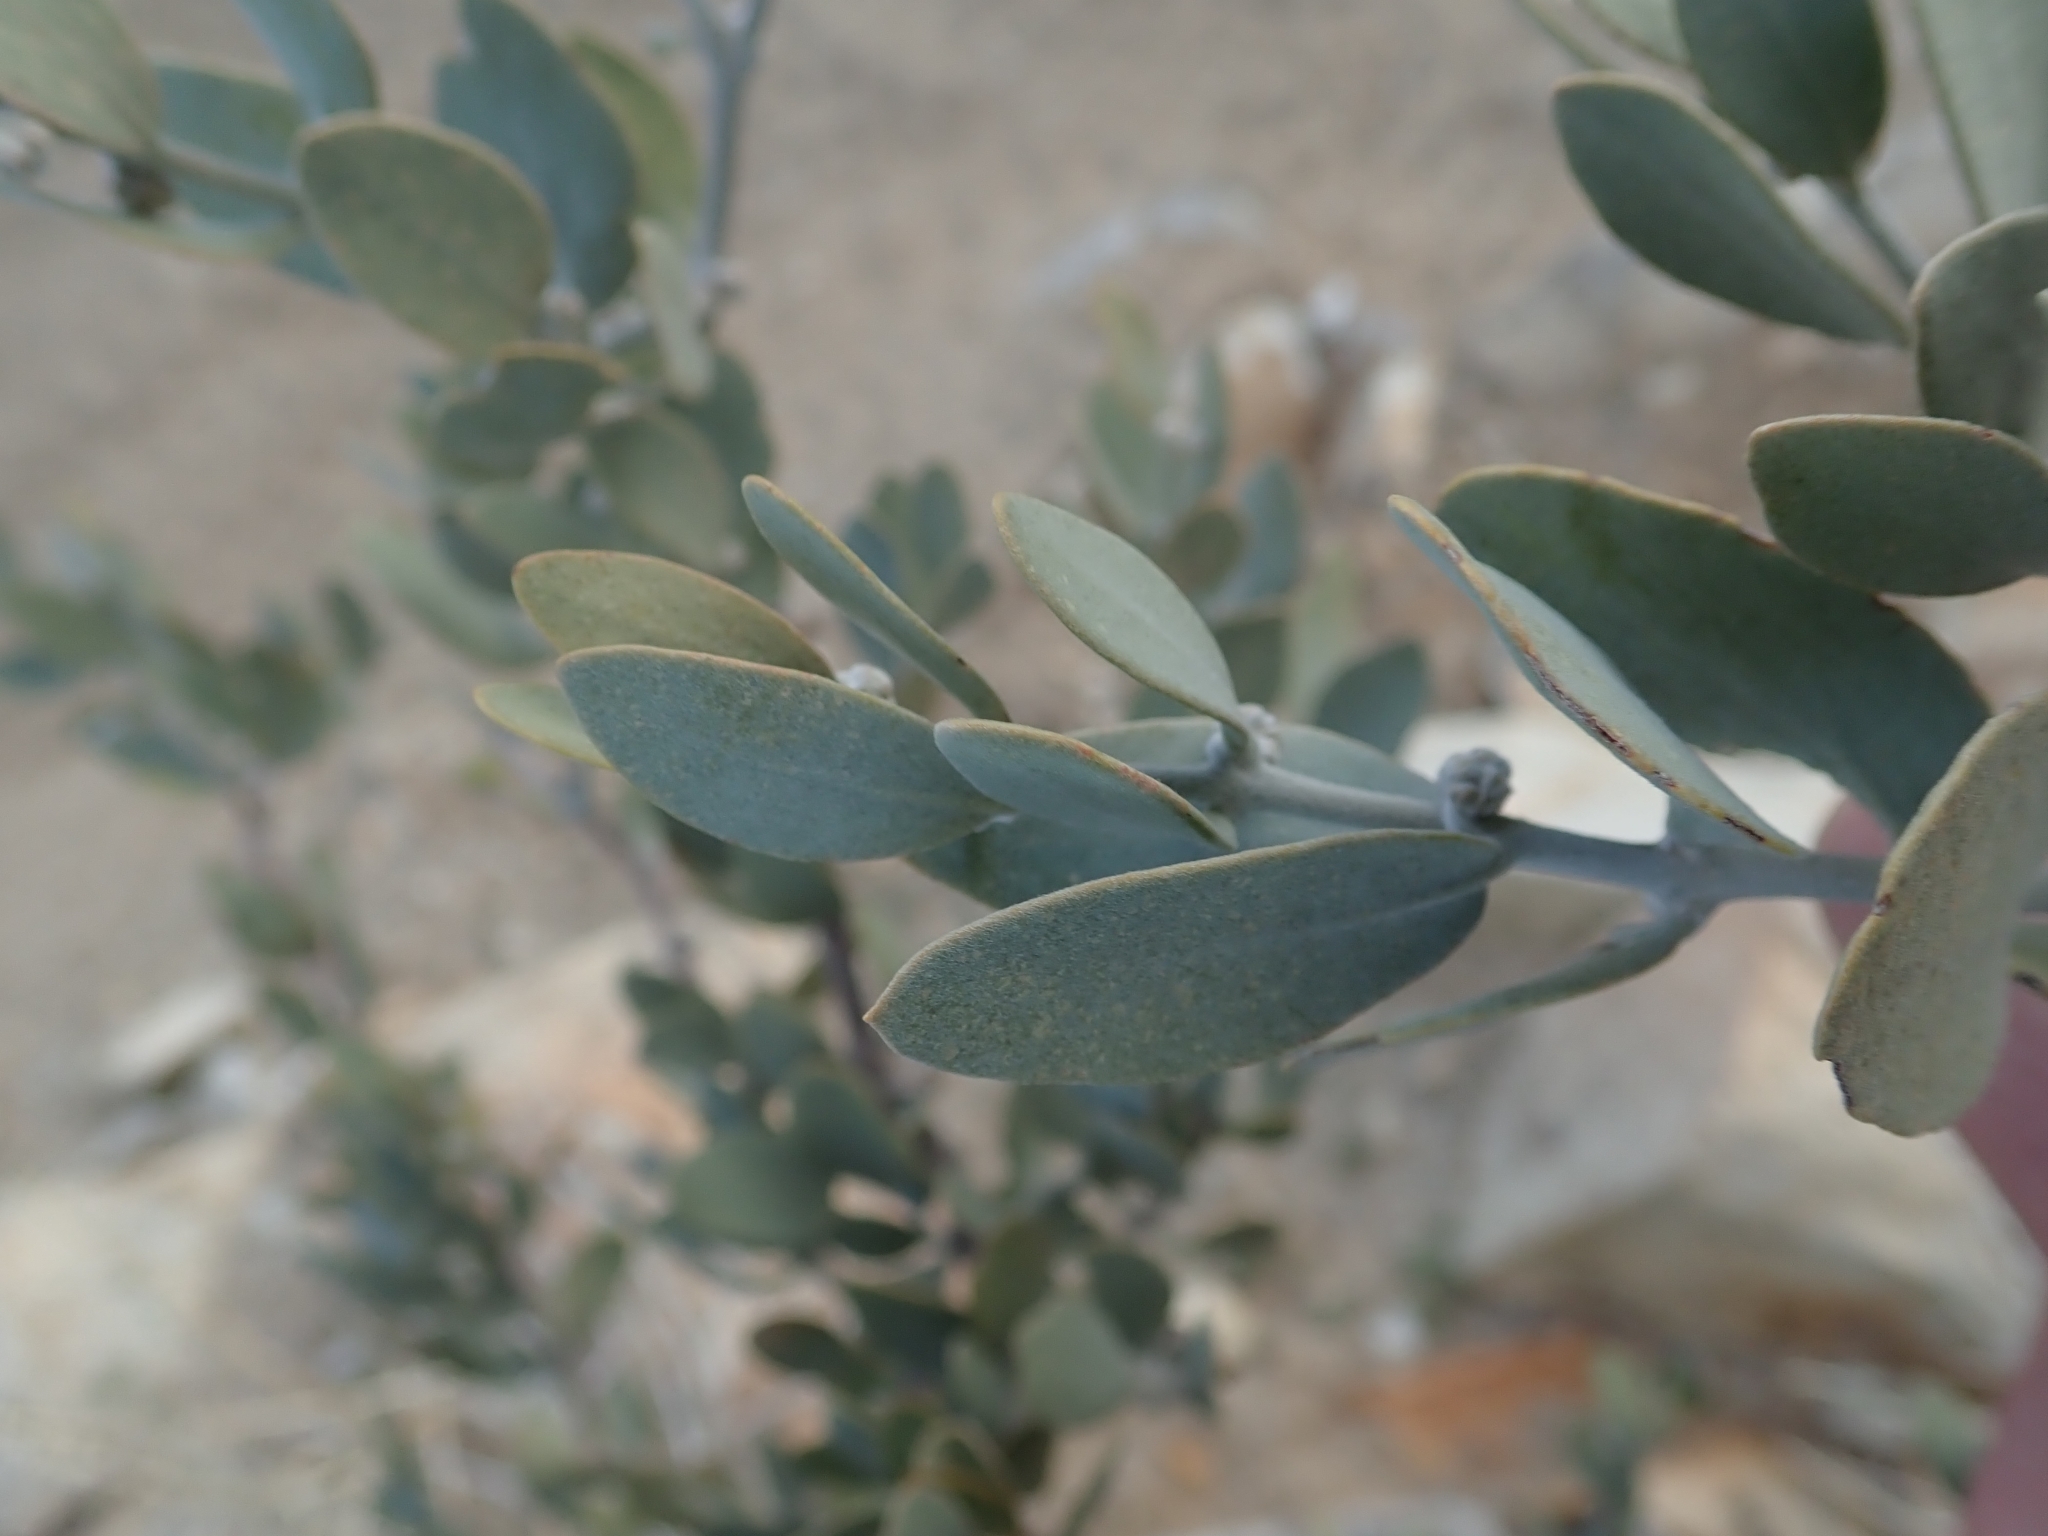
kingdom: Plantae
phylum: Tracheophyta
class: Magnoliopsida
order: Caryophyllales
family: Simmondsiaceae
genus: Simmondsia
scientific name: Simmondsia chinensis
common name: Jojoba
